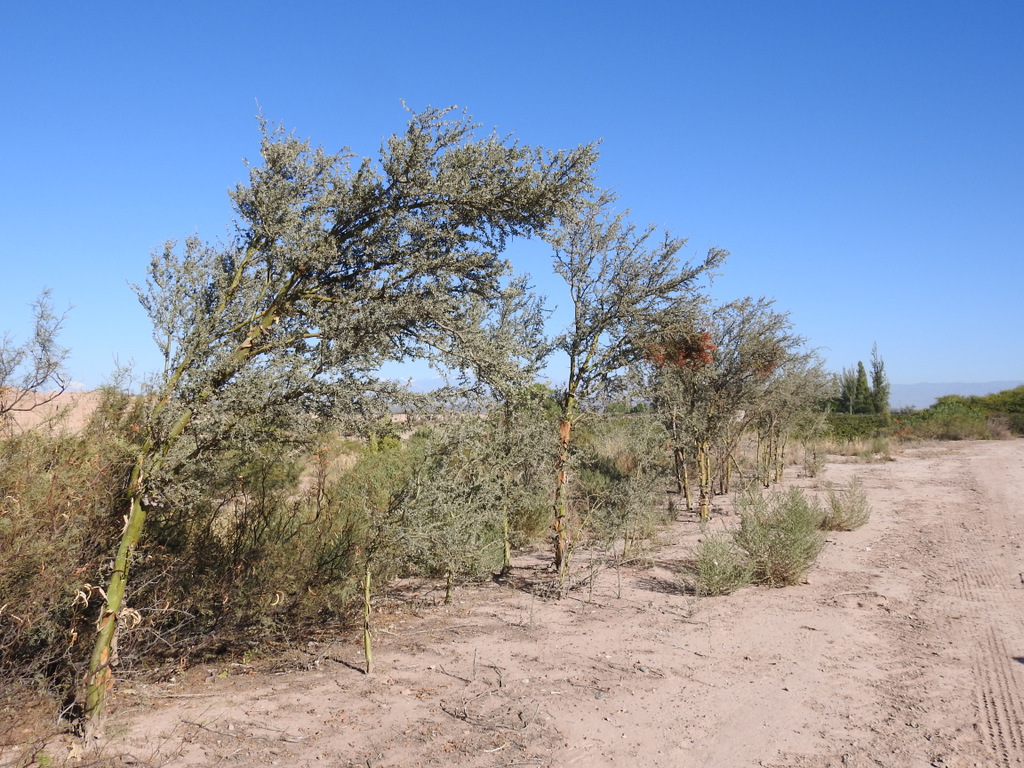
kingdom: Plantae
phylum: Tracheophyta
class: Magnoliopsida
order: Fabales
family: Fabaceae
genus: Geoffroea
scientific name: Geoffroea decorticans
